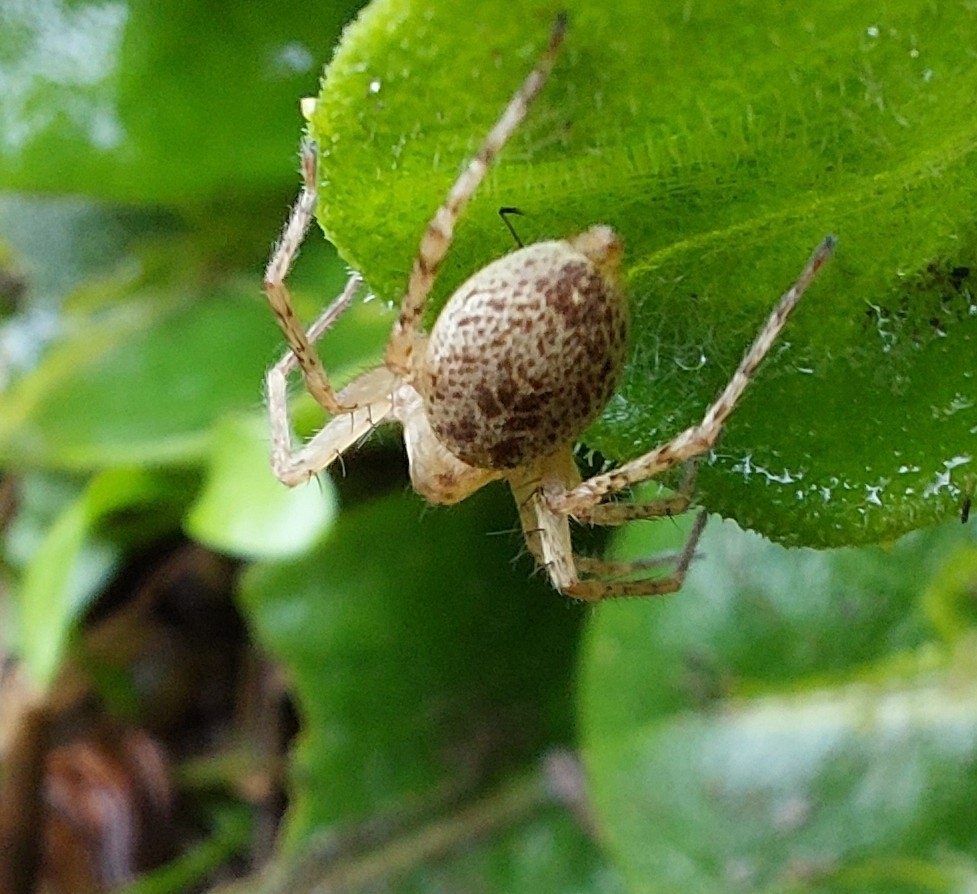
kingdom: Animalia
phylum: Arthropoda
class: Arachnida
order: Araneae
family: Anyphaenidae
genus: Anyphaena
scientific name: Anyphaena accentuata
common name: Buzzing spider
